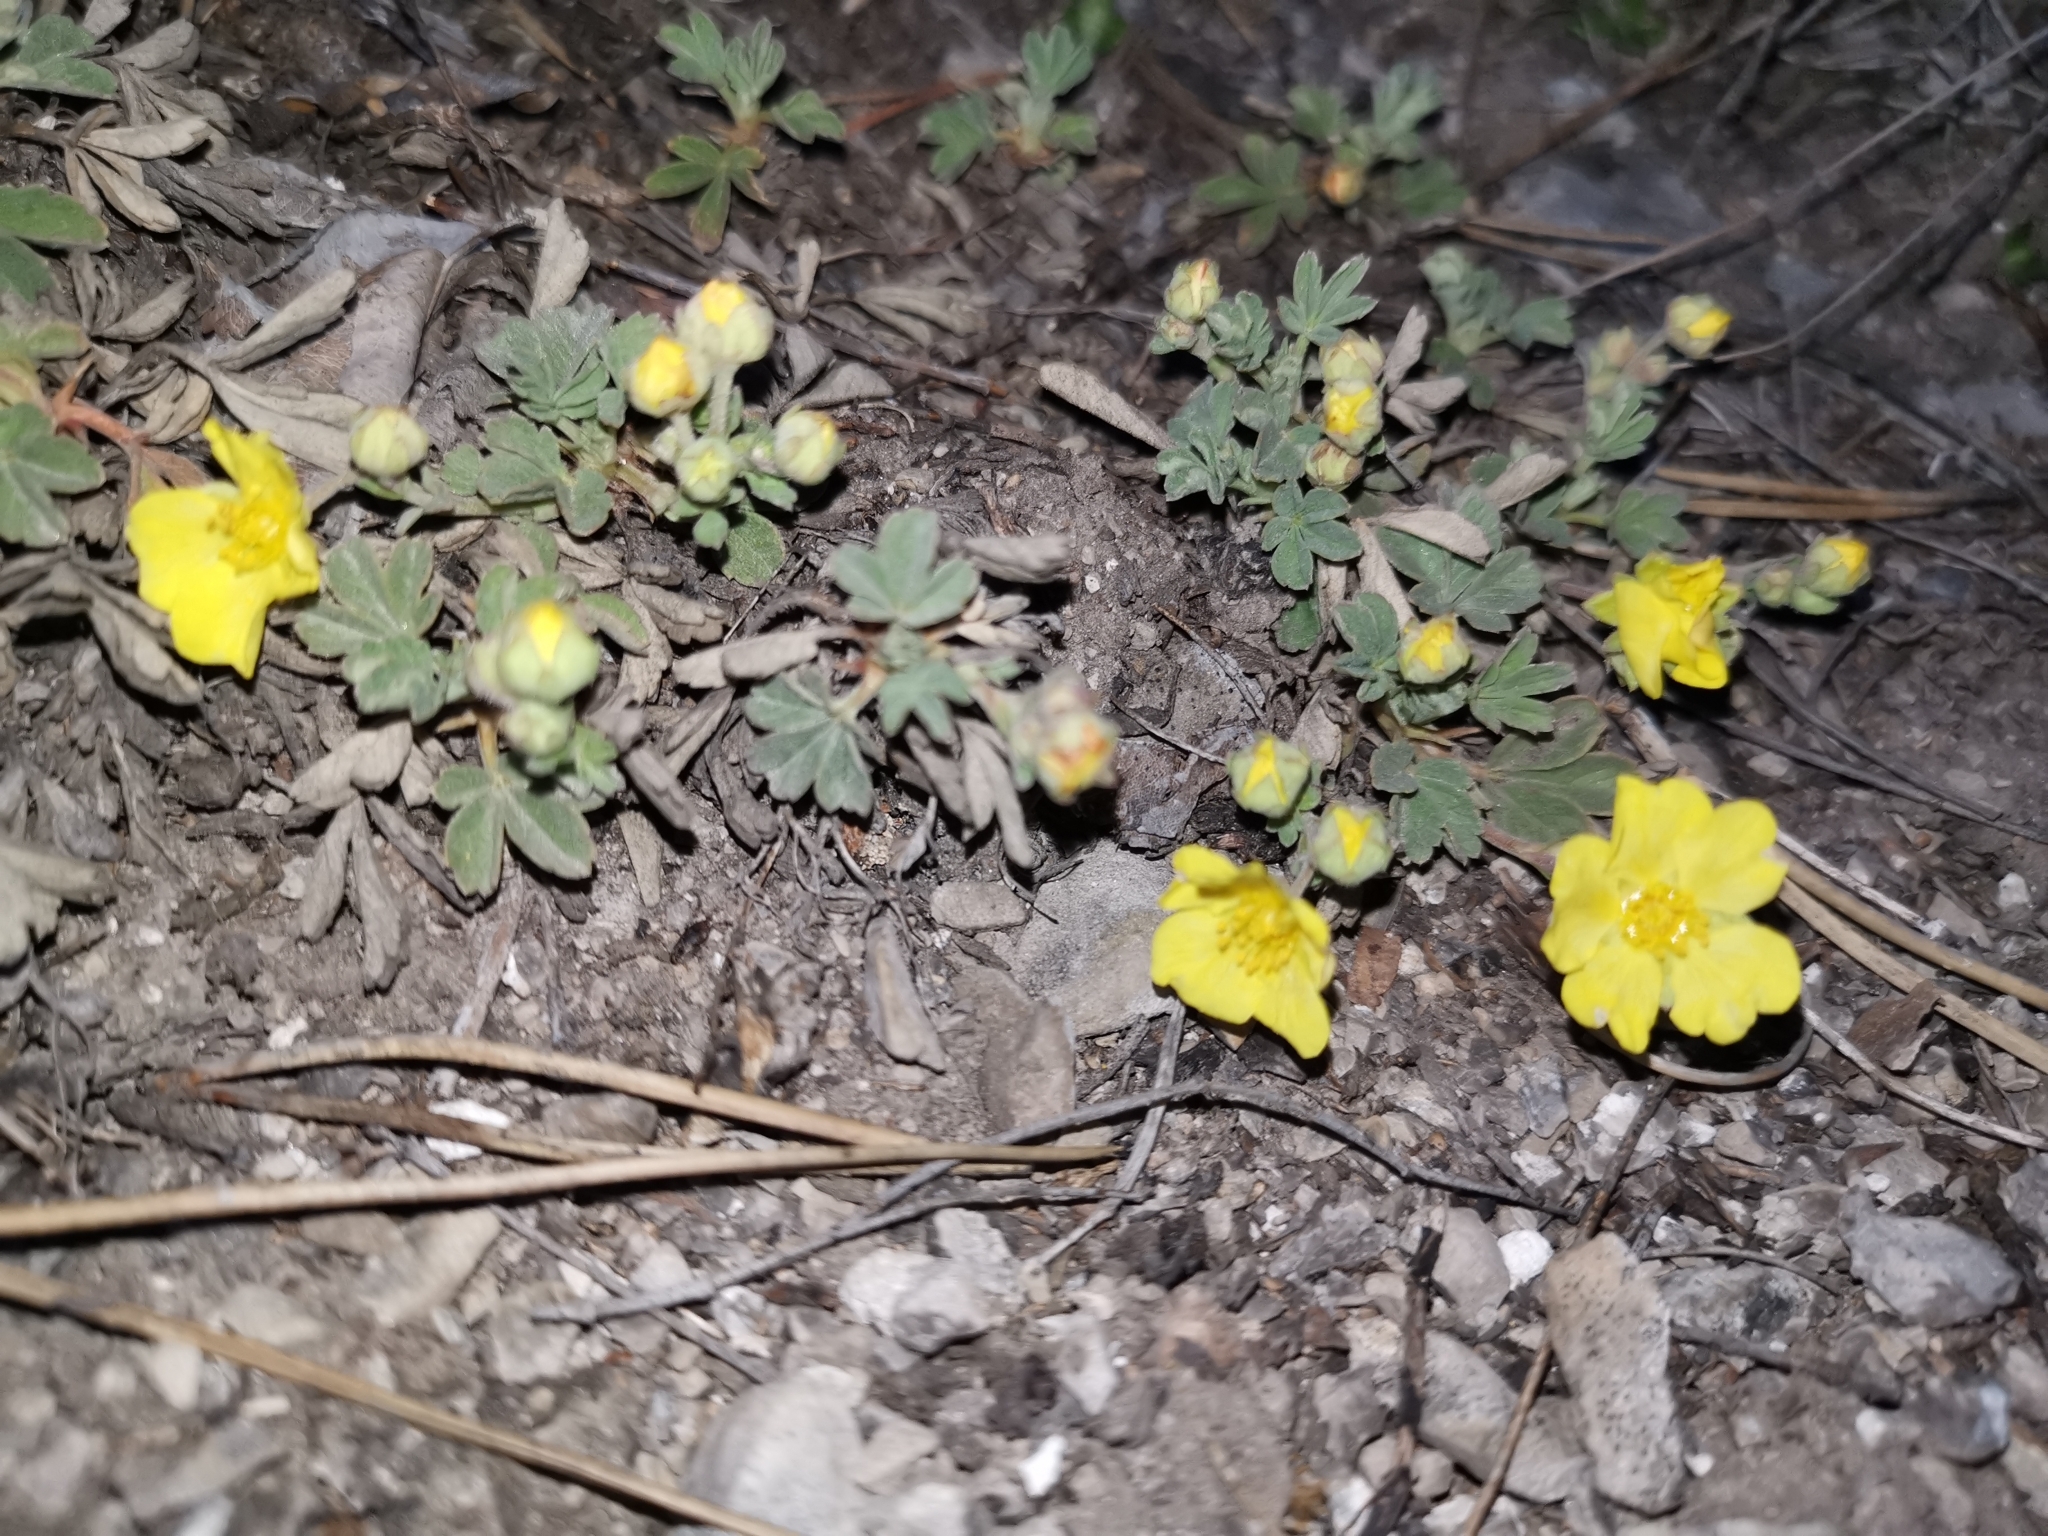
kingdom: Plantae
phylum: Tracheophyta
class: Magnoliopsida
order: Rosales
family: Rosaceae
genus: Potentilla
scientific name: Potentilla incana
